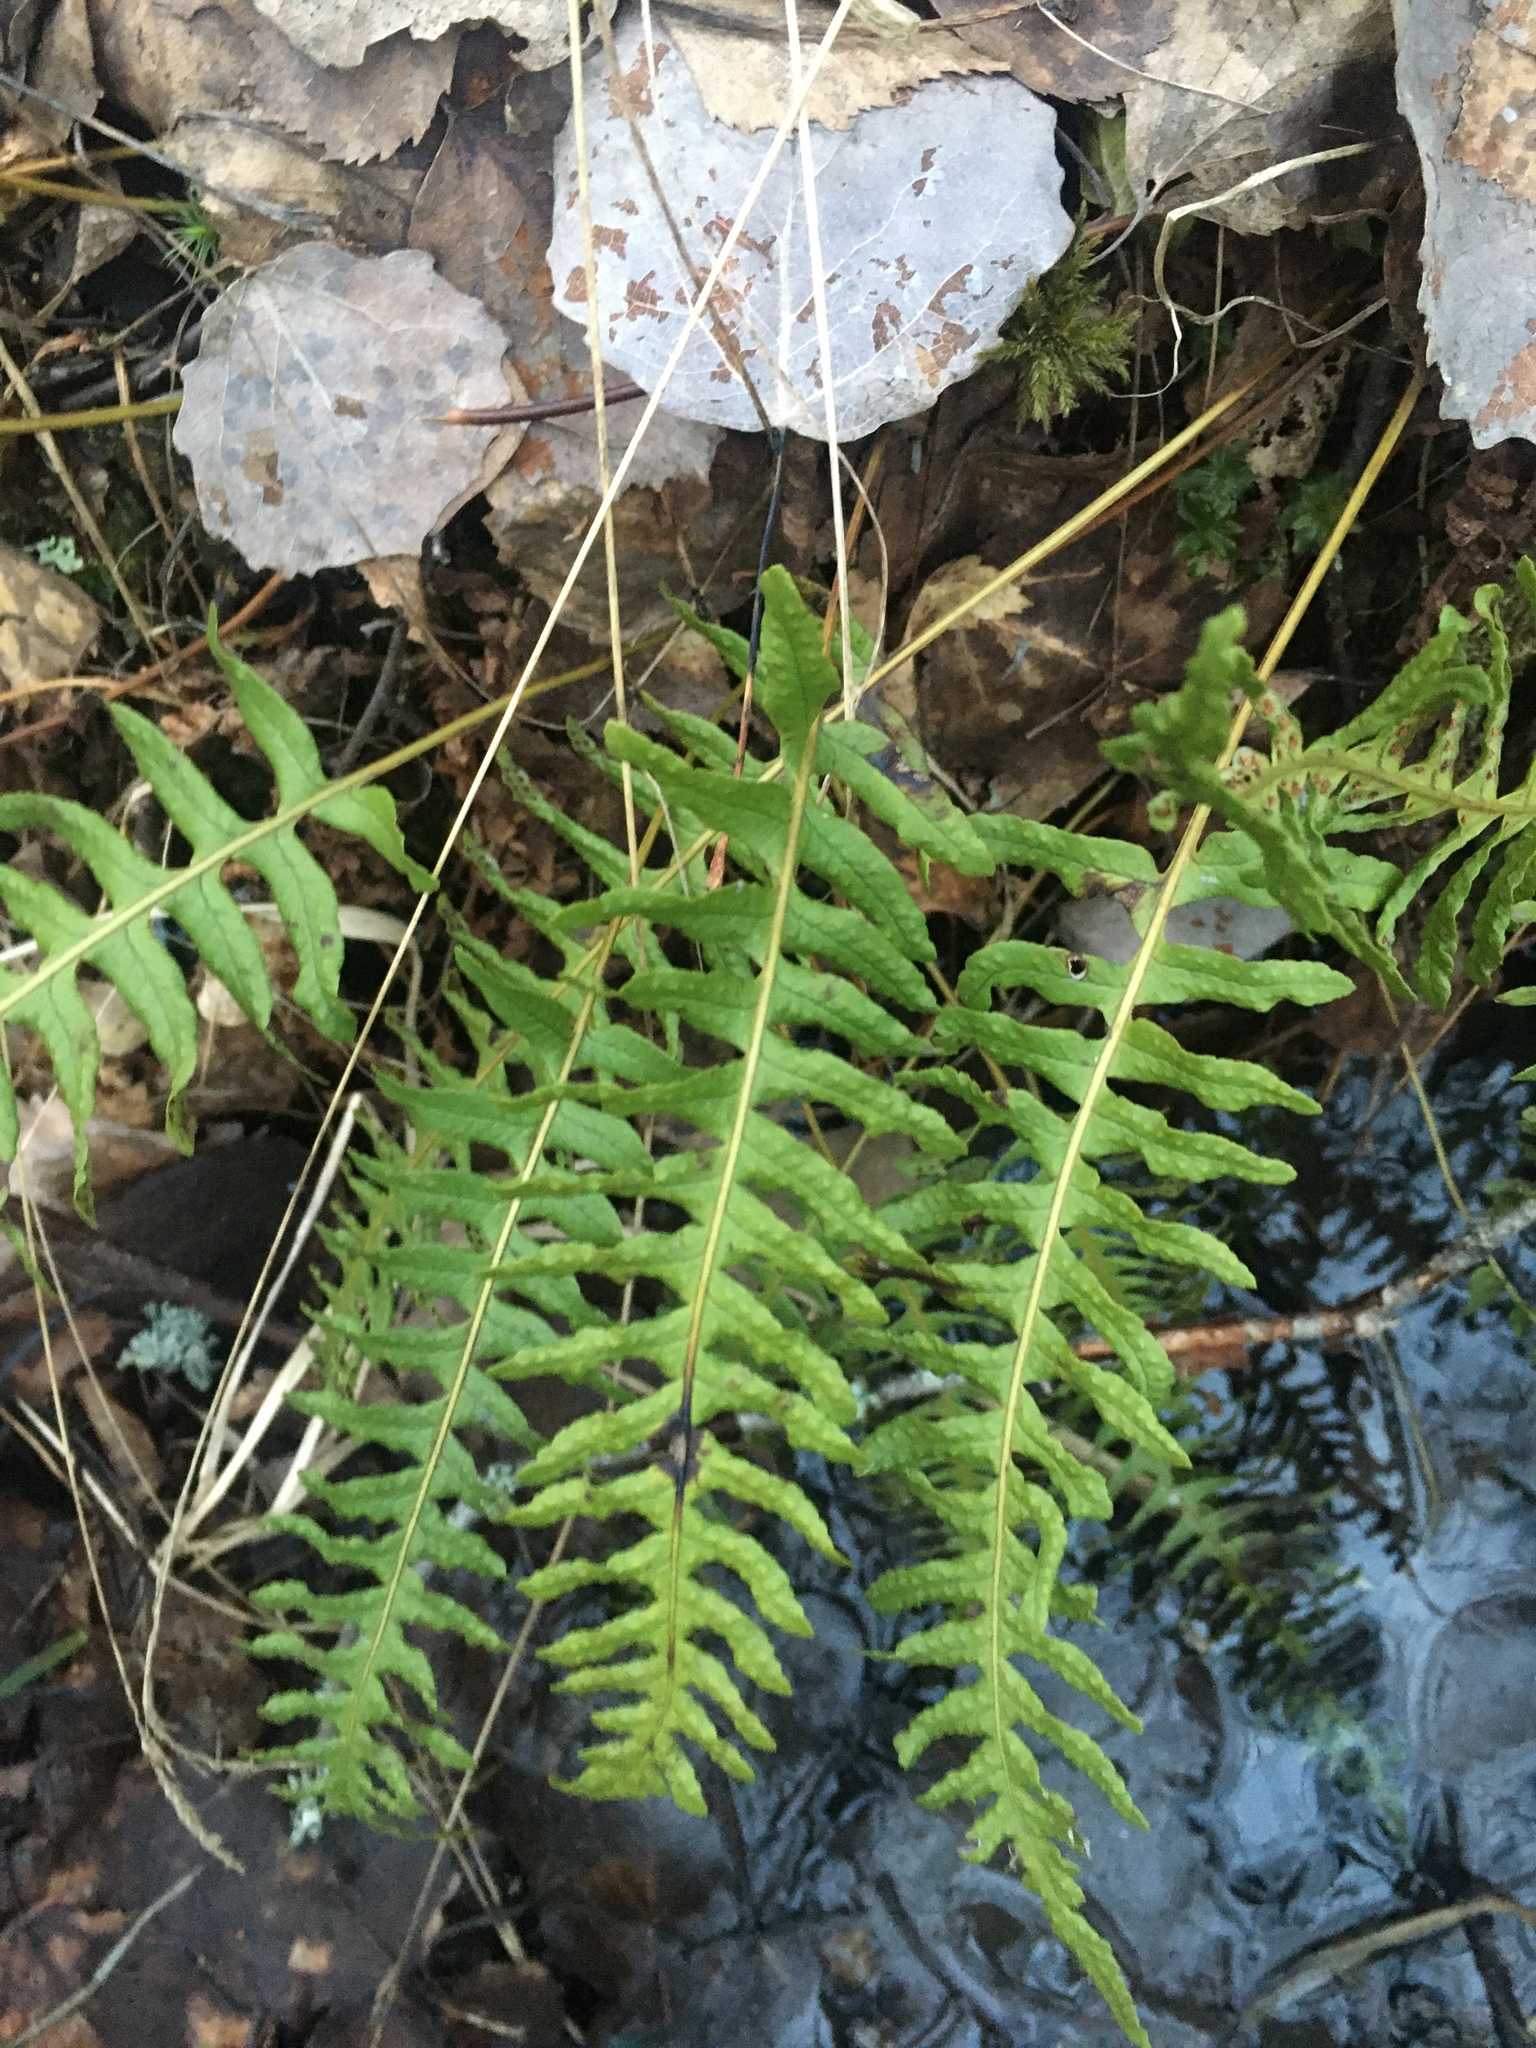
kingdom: Plantae
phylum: Tracheophyta
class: Polypodiopsida
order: Polypodiales
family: Polypodiaceae
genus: Polypodium
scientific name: Polypodium vulgare
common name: Common polypody
